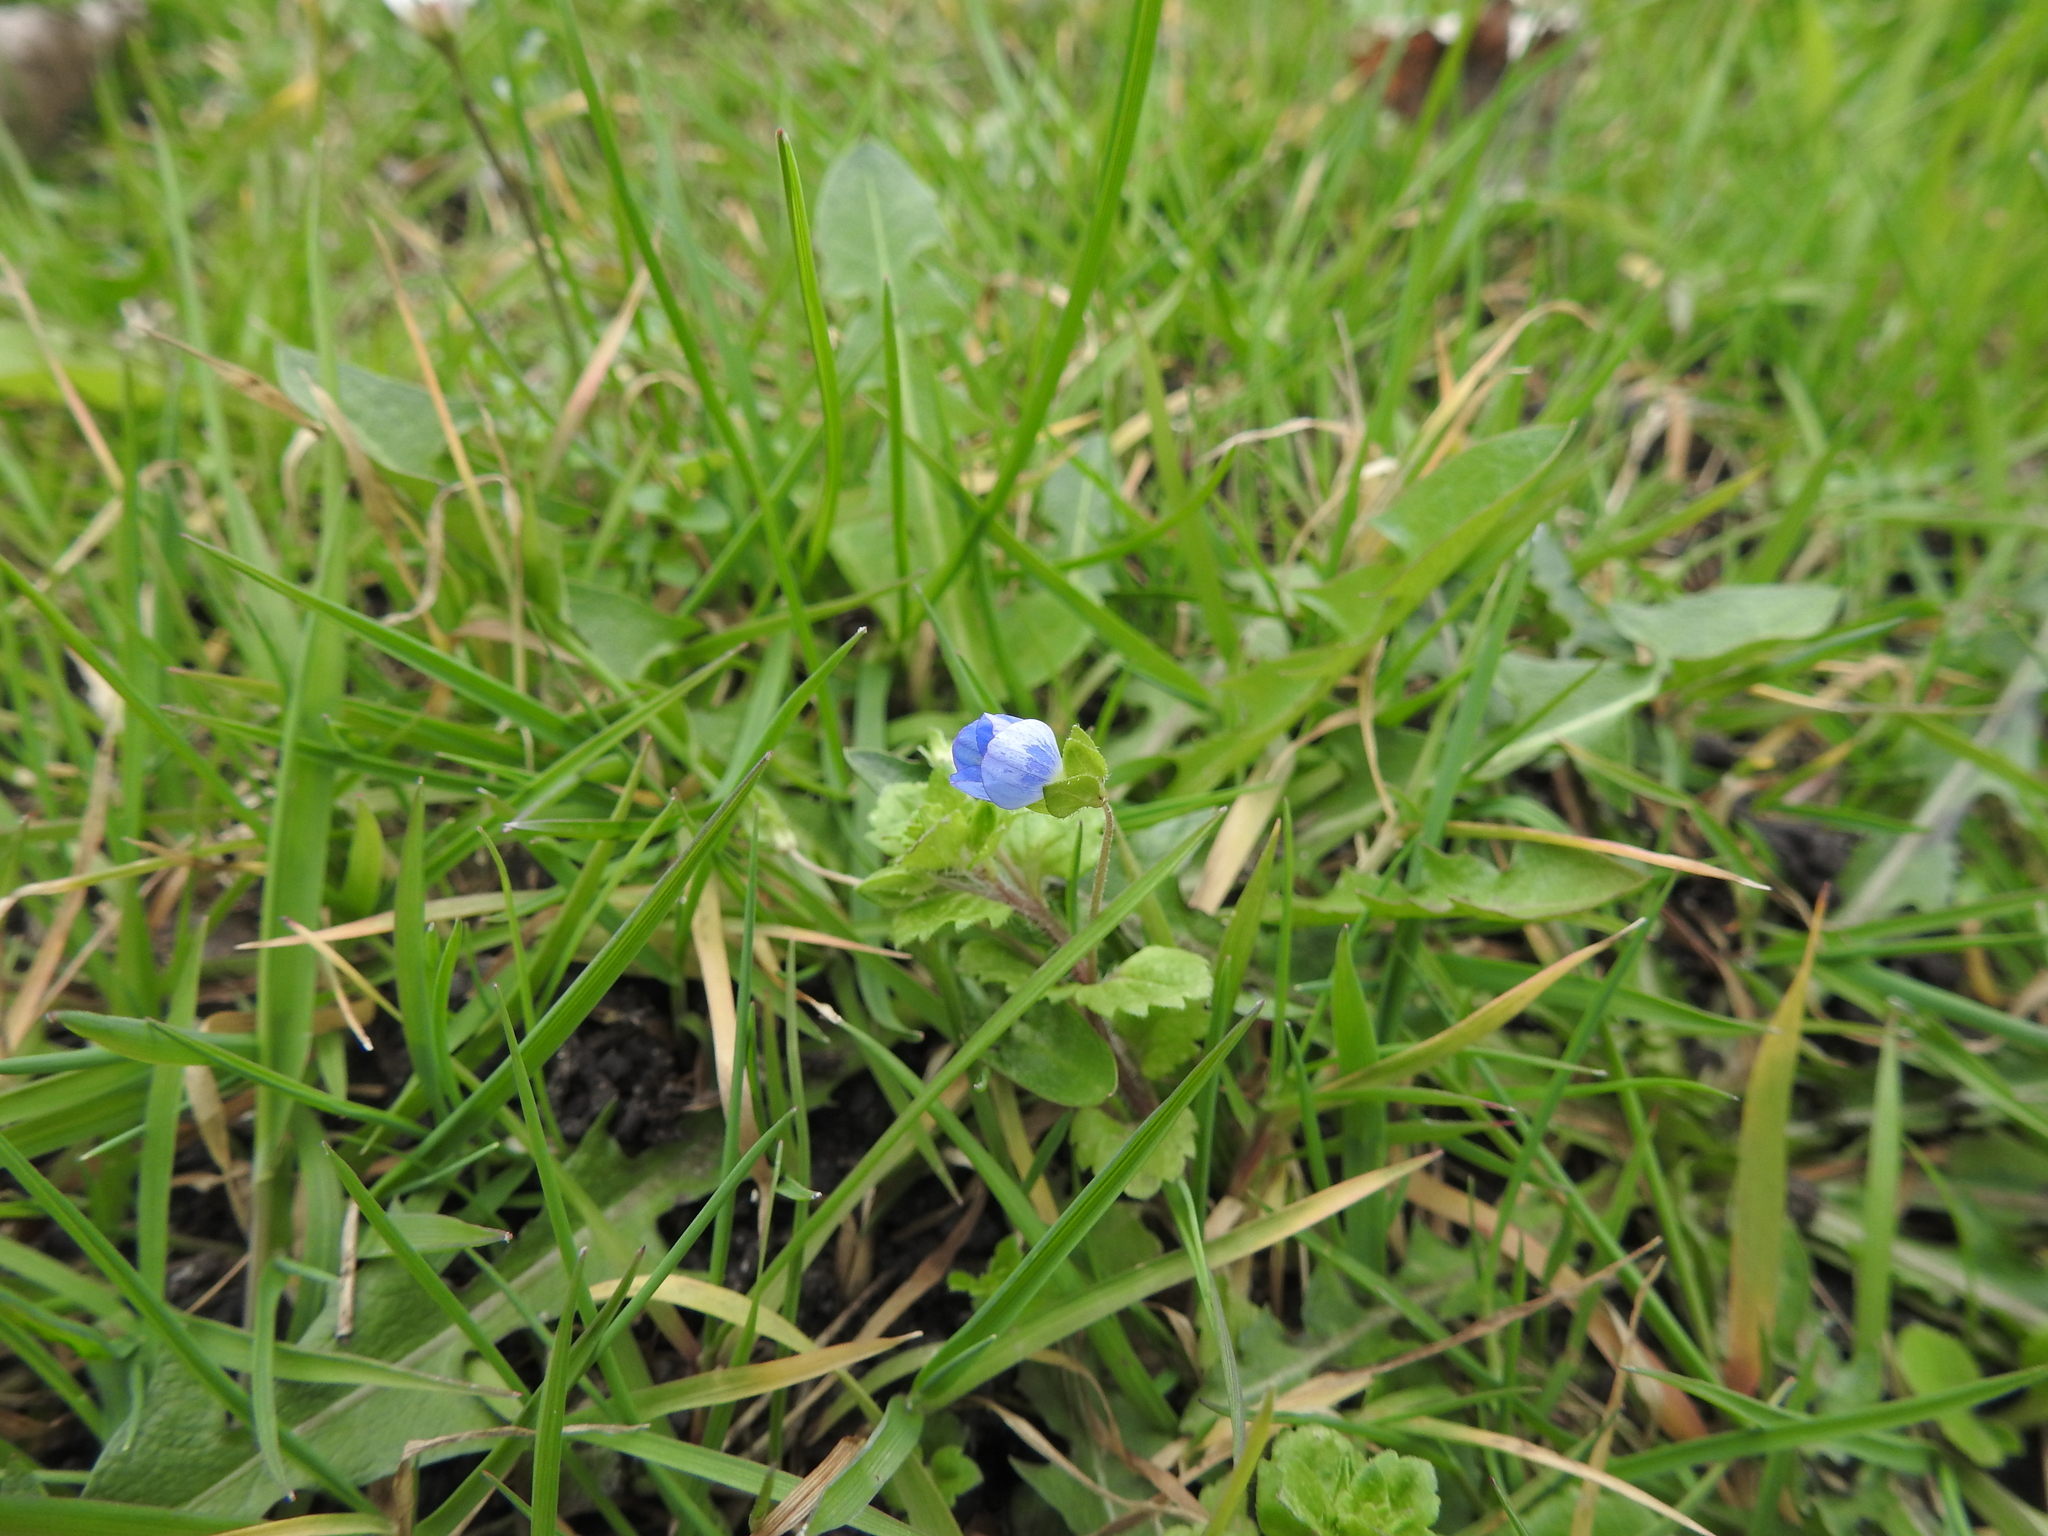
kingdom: Plantae
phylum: Tracheophyta
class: Magnoliopsida
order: Lamiales
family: Plantaginaceae
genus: Veronica
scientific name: Veronica persica
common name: Common field-speedwell
